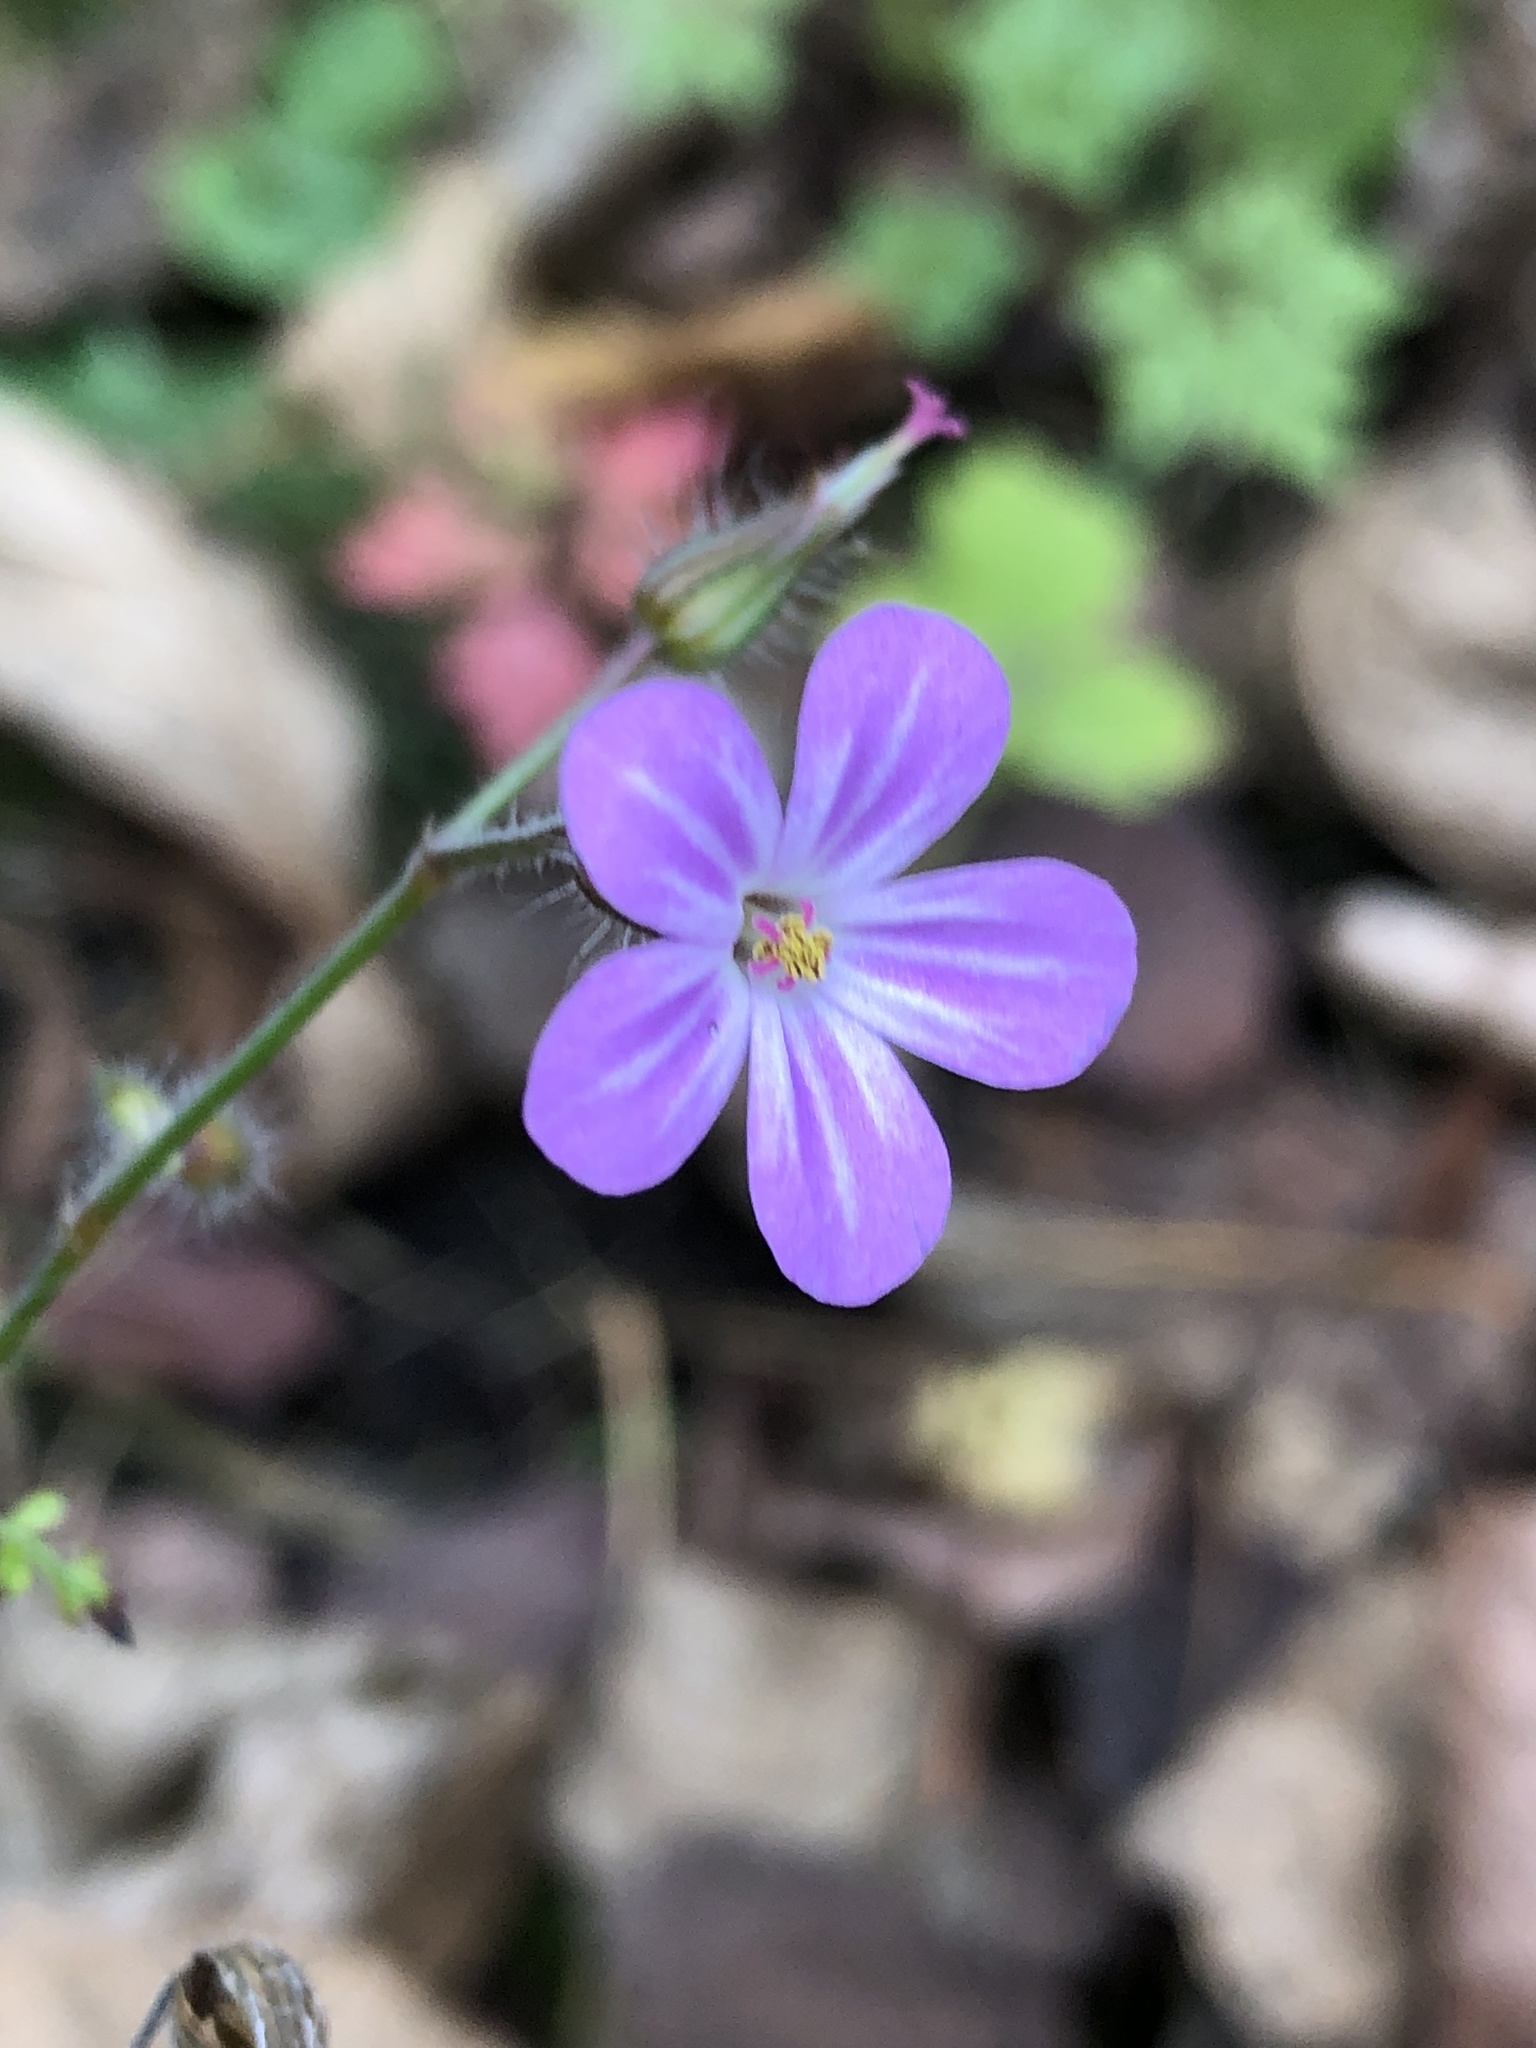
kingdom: Plantae
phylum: Tracheophyta
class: Magnoliopsida
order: Geraniales
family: Geraniaceae
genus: Geranium
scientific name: Geranium robertianum
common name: Herb-robert
